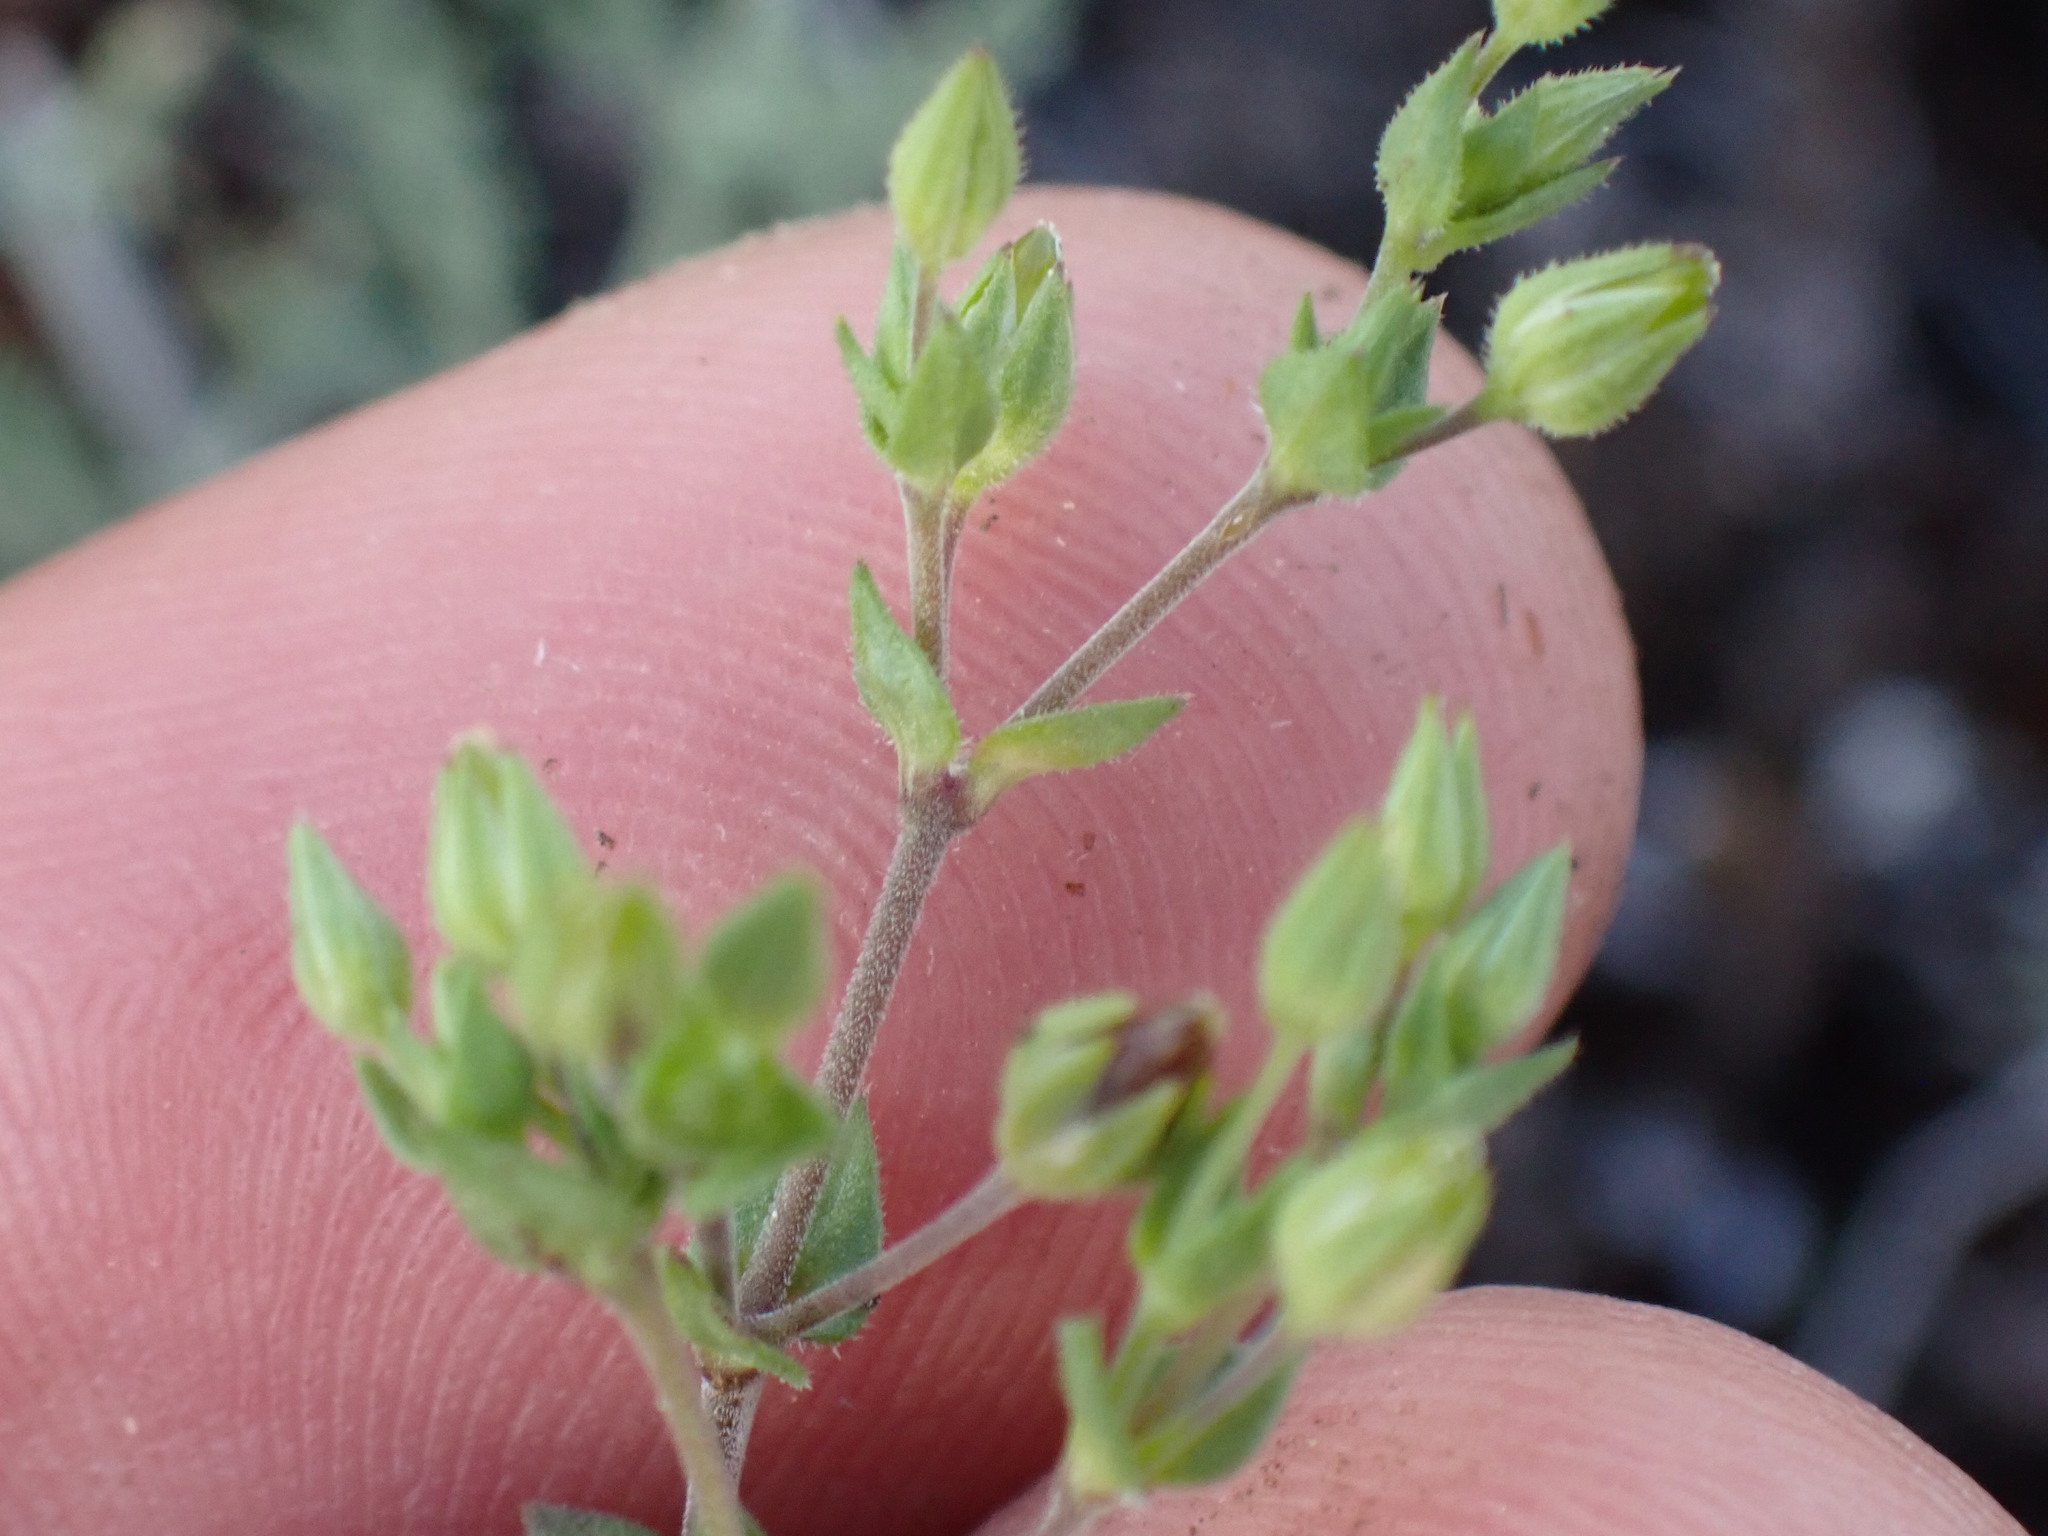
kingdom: Plantae
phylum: Tracheophyta
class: Magnoliopsida
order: Caryophyllales
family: Caryophyllaceae
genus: Arenaria
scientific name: Arenaria serpyllifolia
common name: Thyme-leaved sandwort
